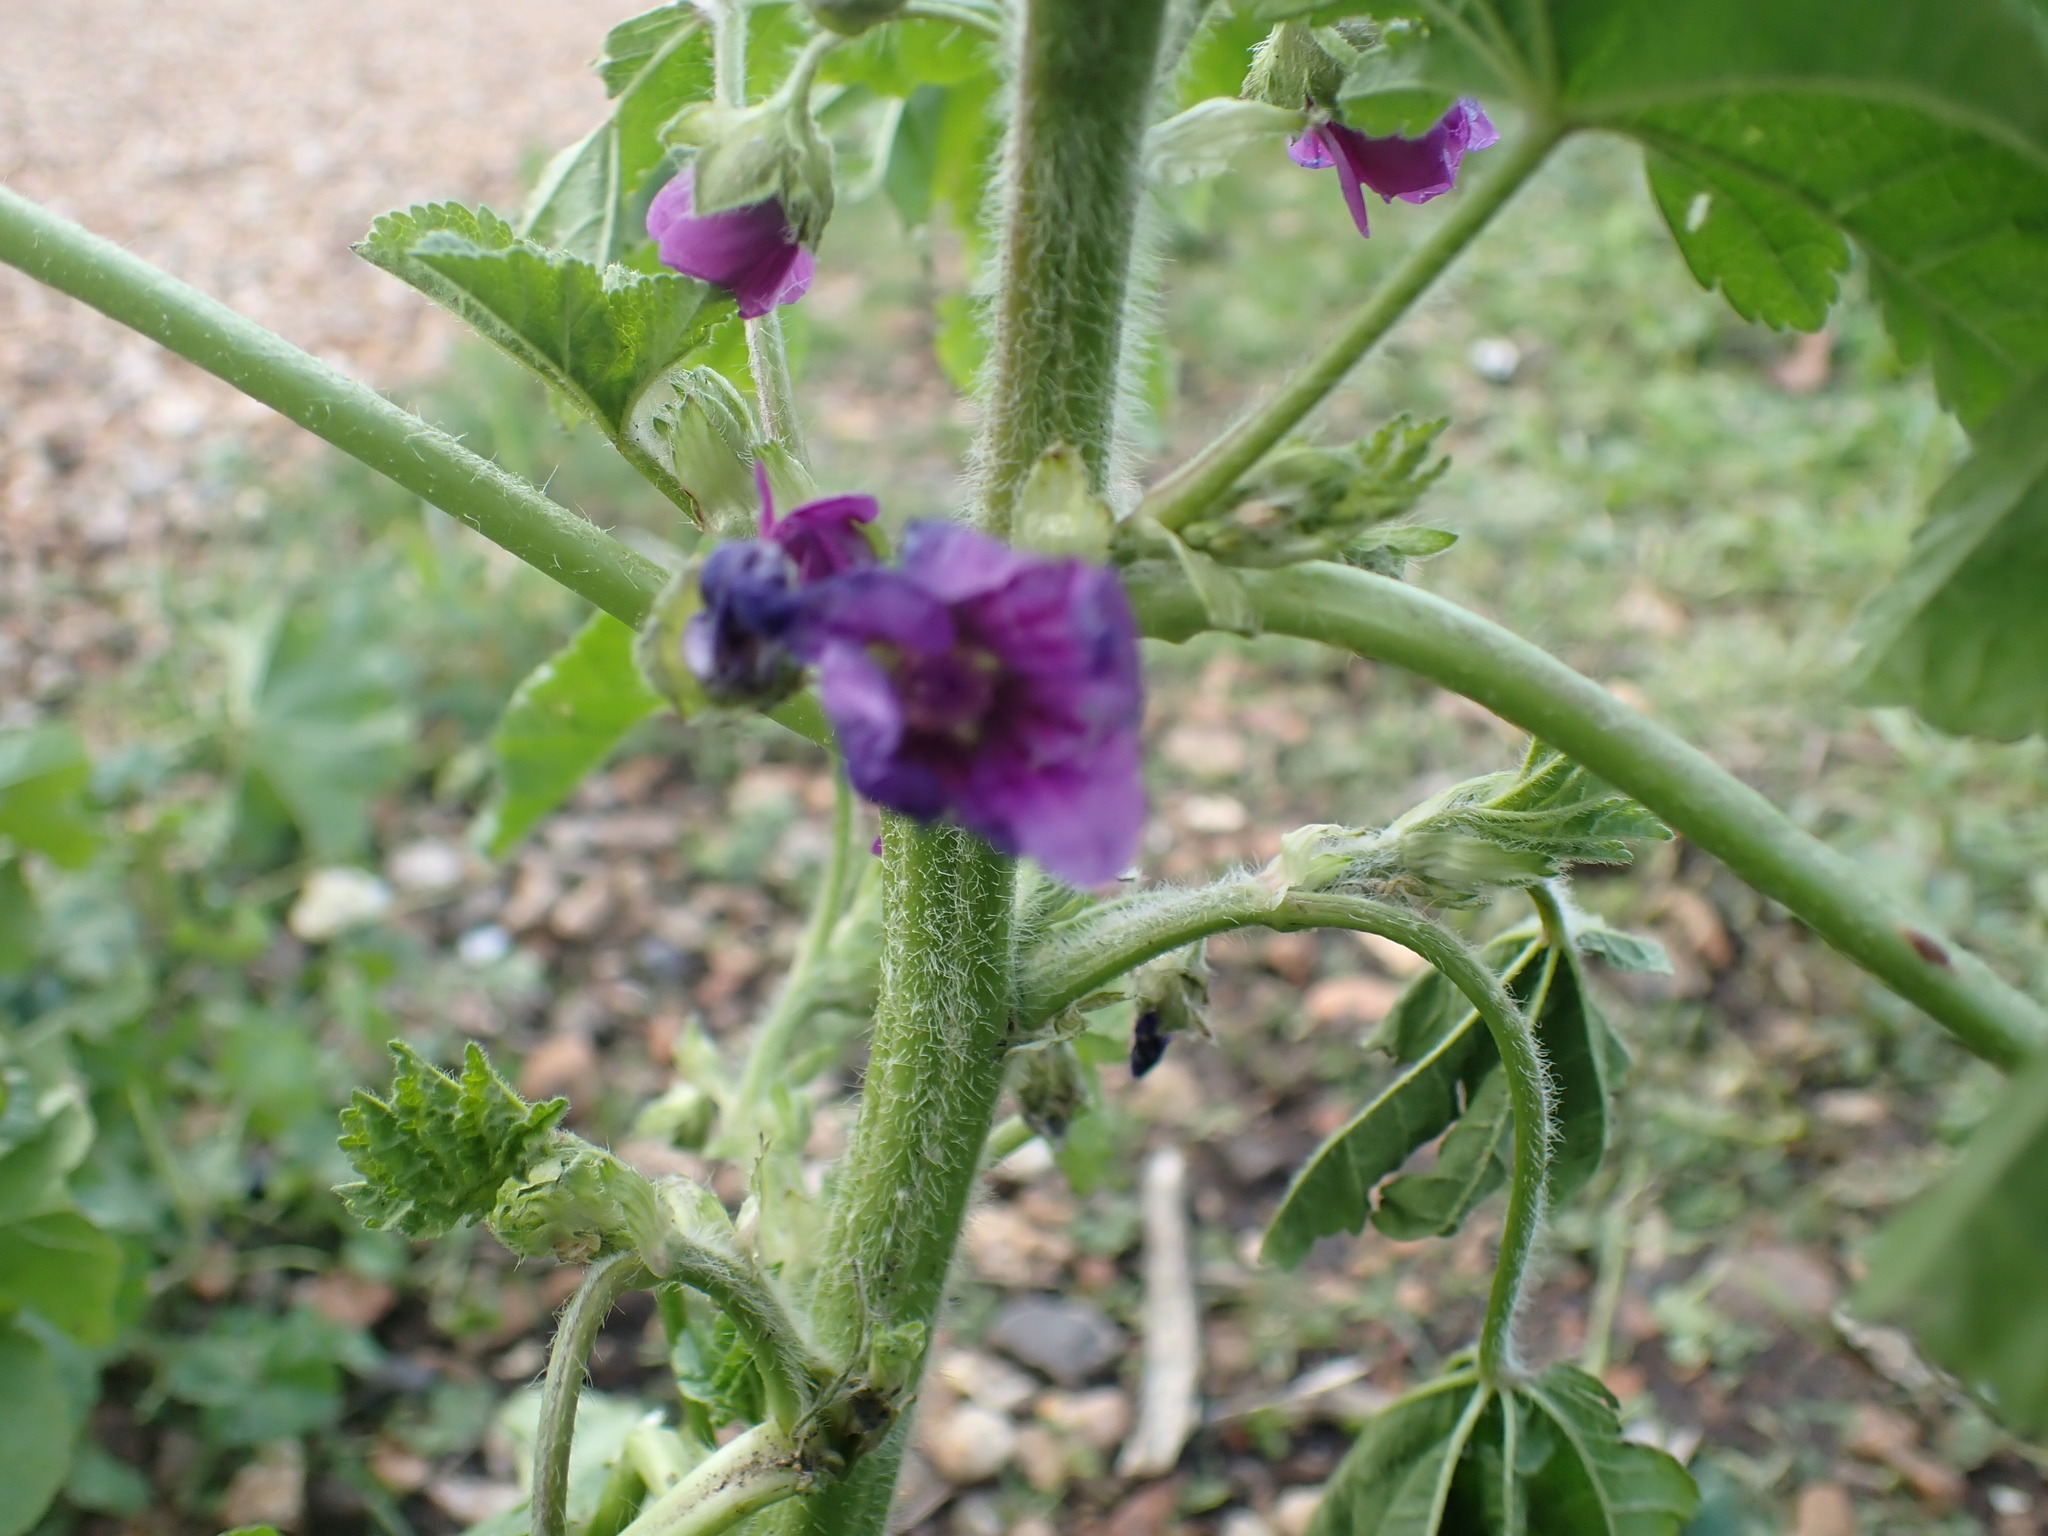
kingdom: Plantae
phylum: Tracheophyta
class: Magnoliopsida
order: Malvales
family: Malvaceae
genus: Malva
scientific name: Malva sylvestris
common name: Common mallow
